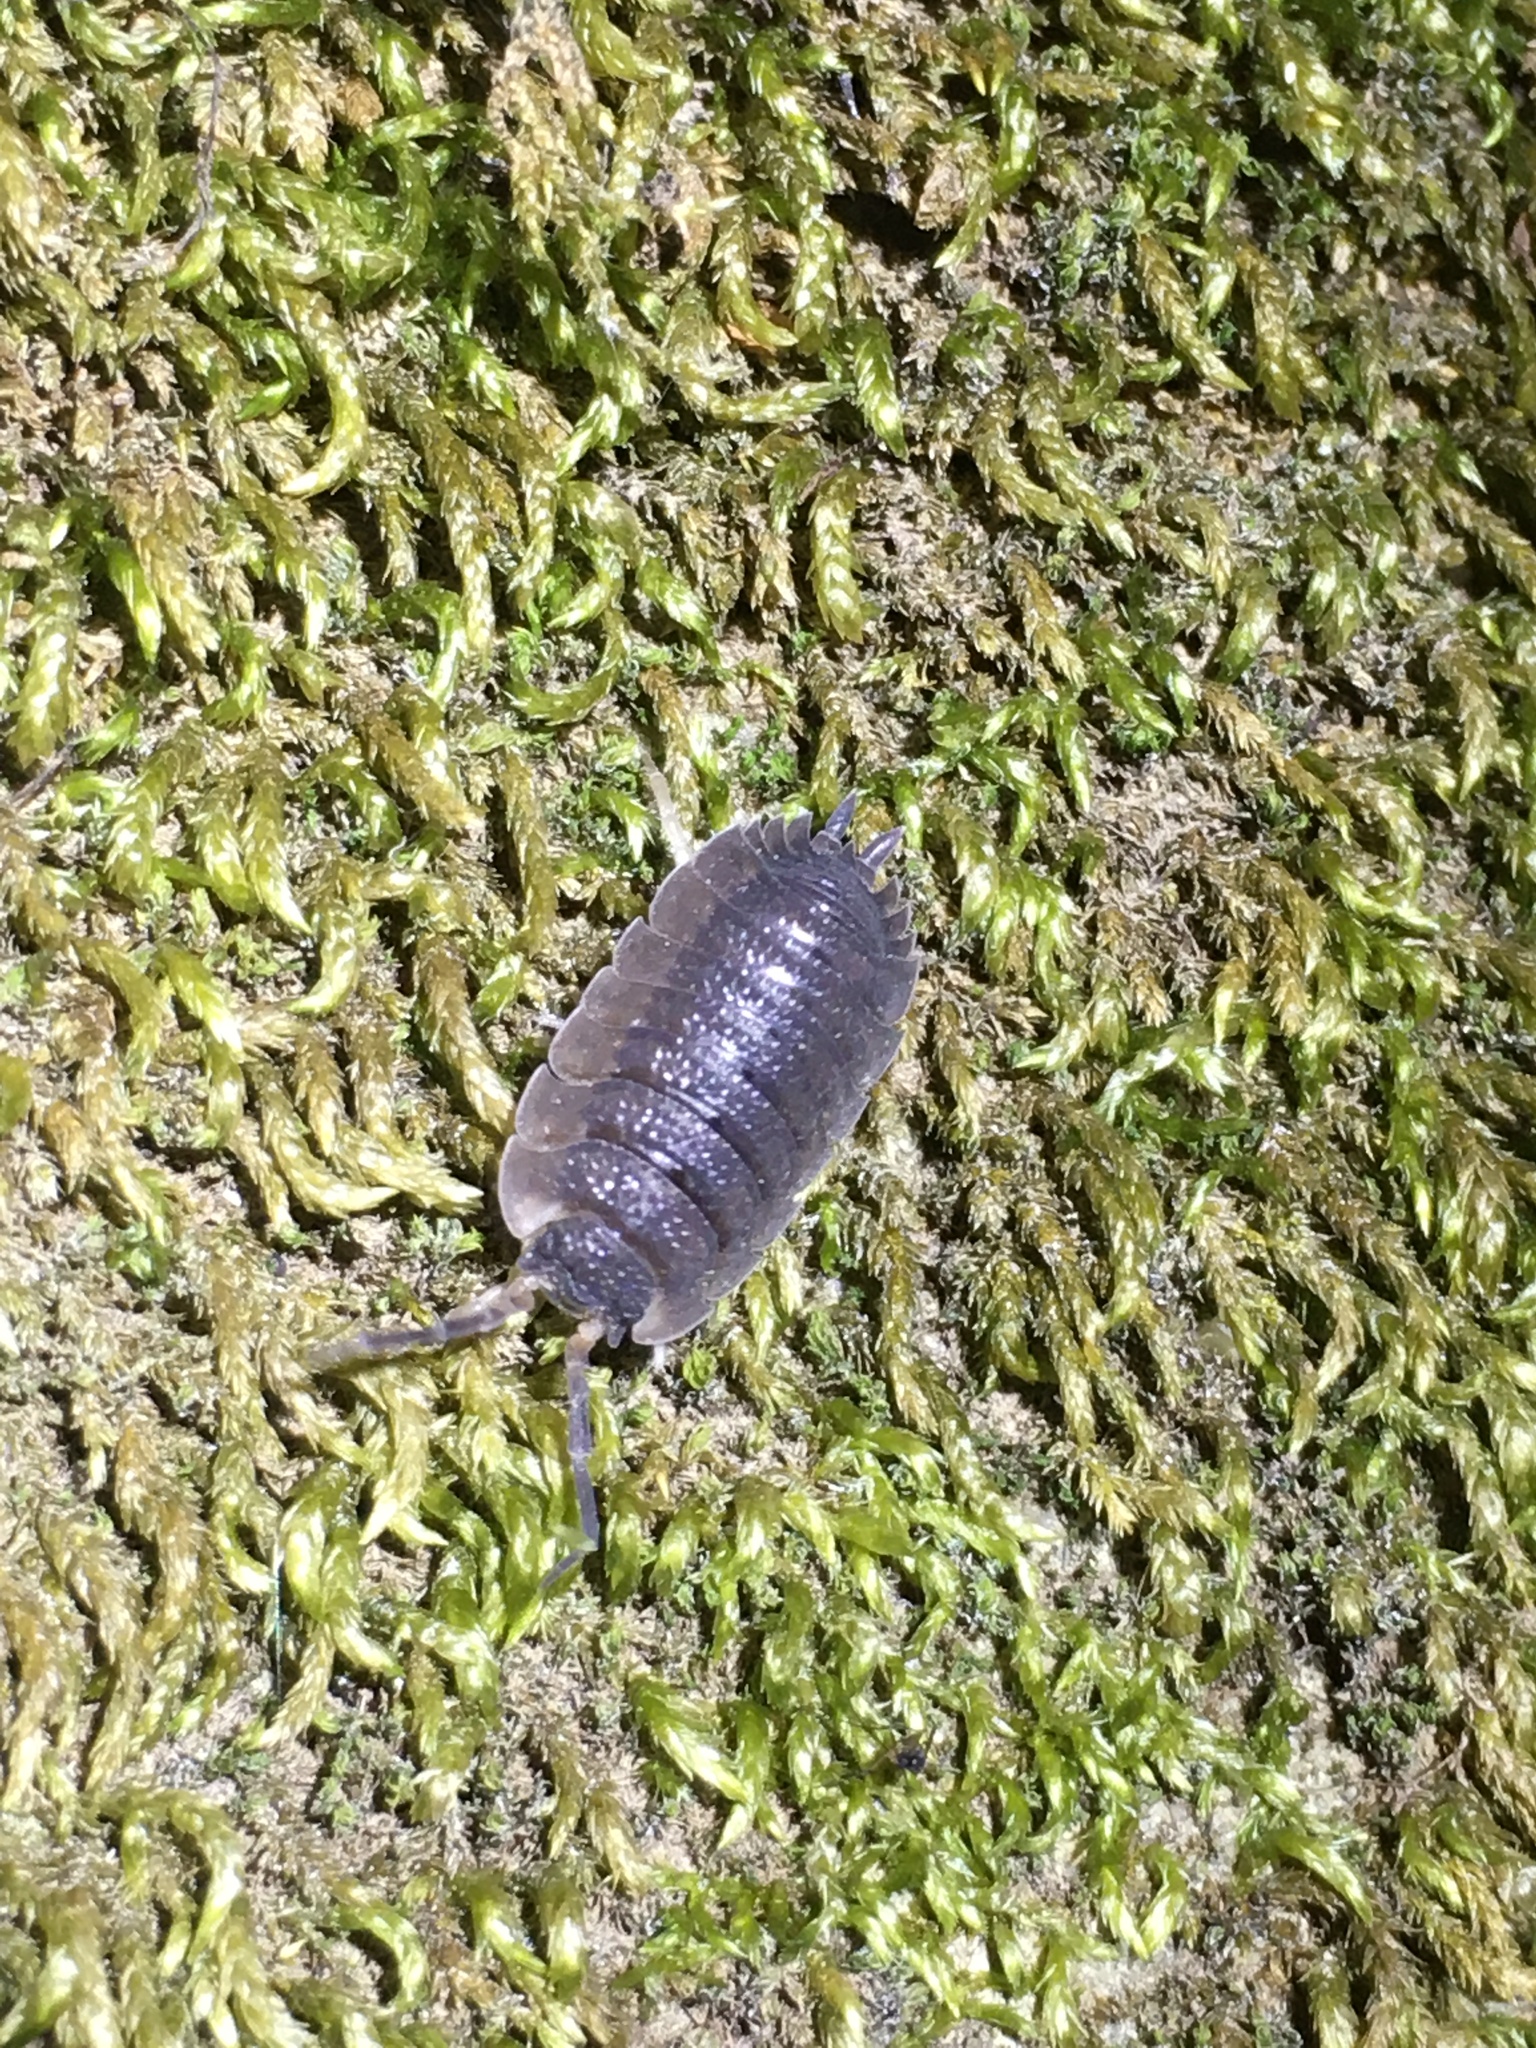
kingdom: Animalia
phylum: Arthropoda
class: Malacostraca
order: Isopoda
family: Porcellionidae
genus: Porcellio
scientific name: Porcellio scaber
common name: Common rough woodlouse
